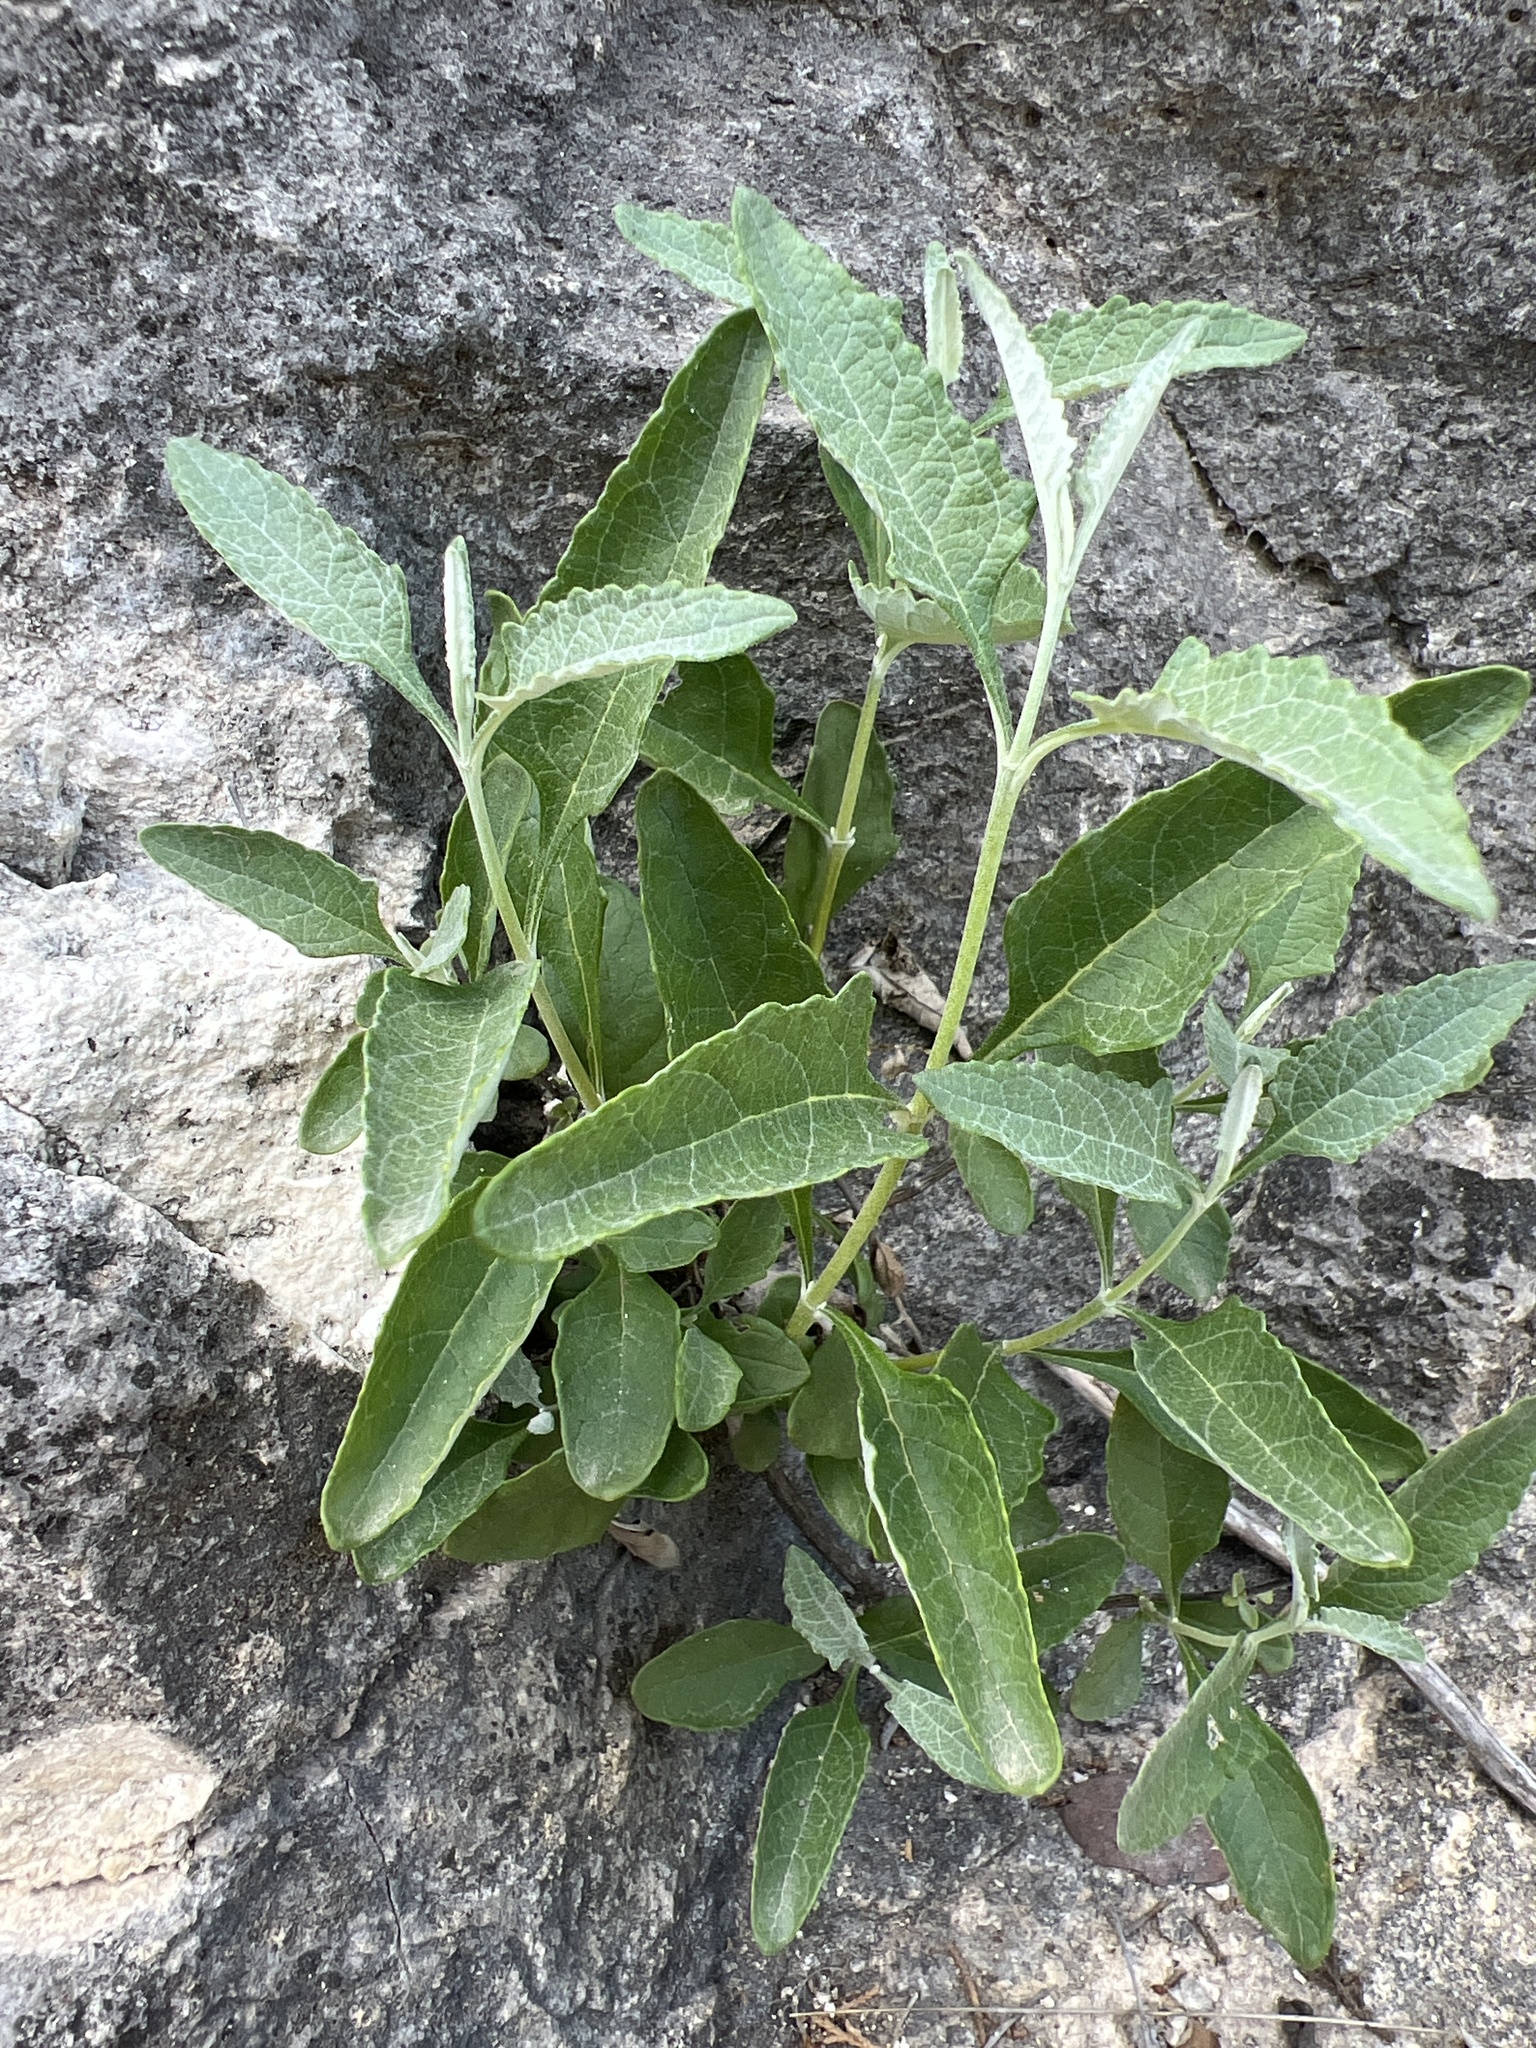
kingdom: Plantae
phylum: Tracheophyta
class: Magnoliopsida
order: Lamiales
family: Scrophulariaceae
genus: Buddleja
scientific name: Buddleja racemosa
